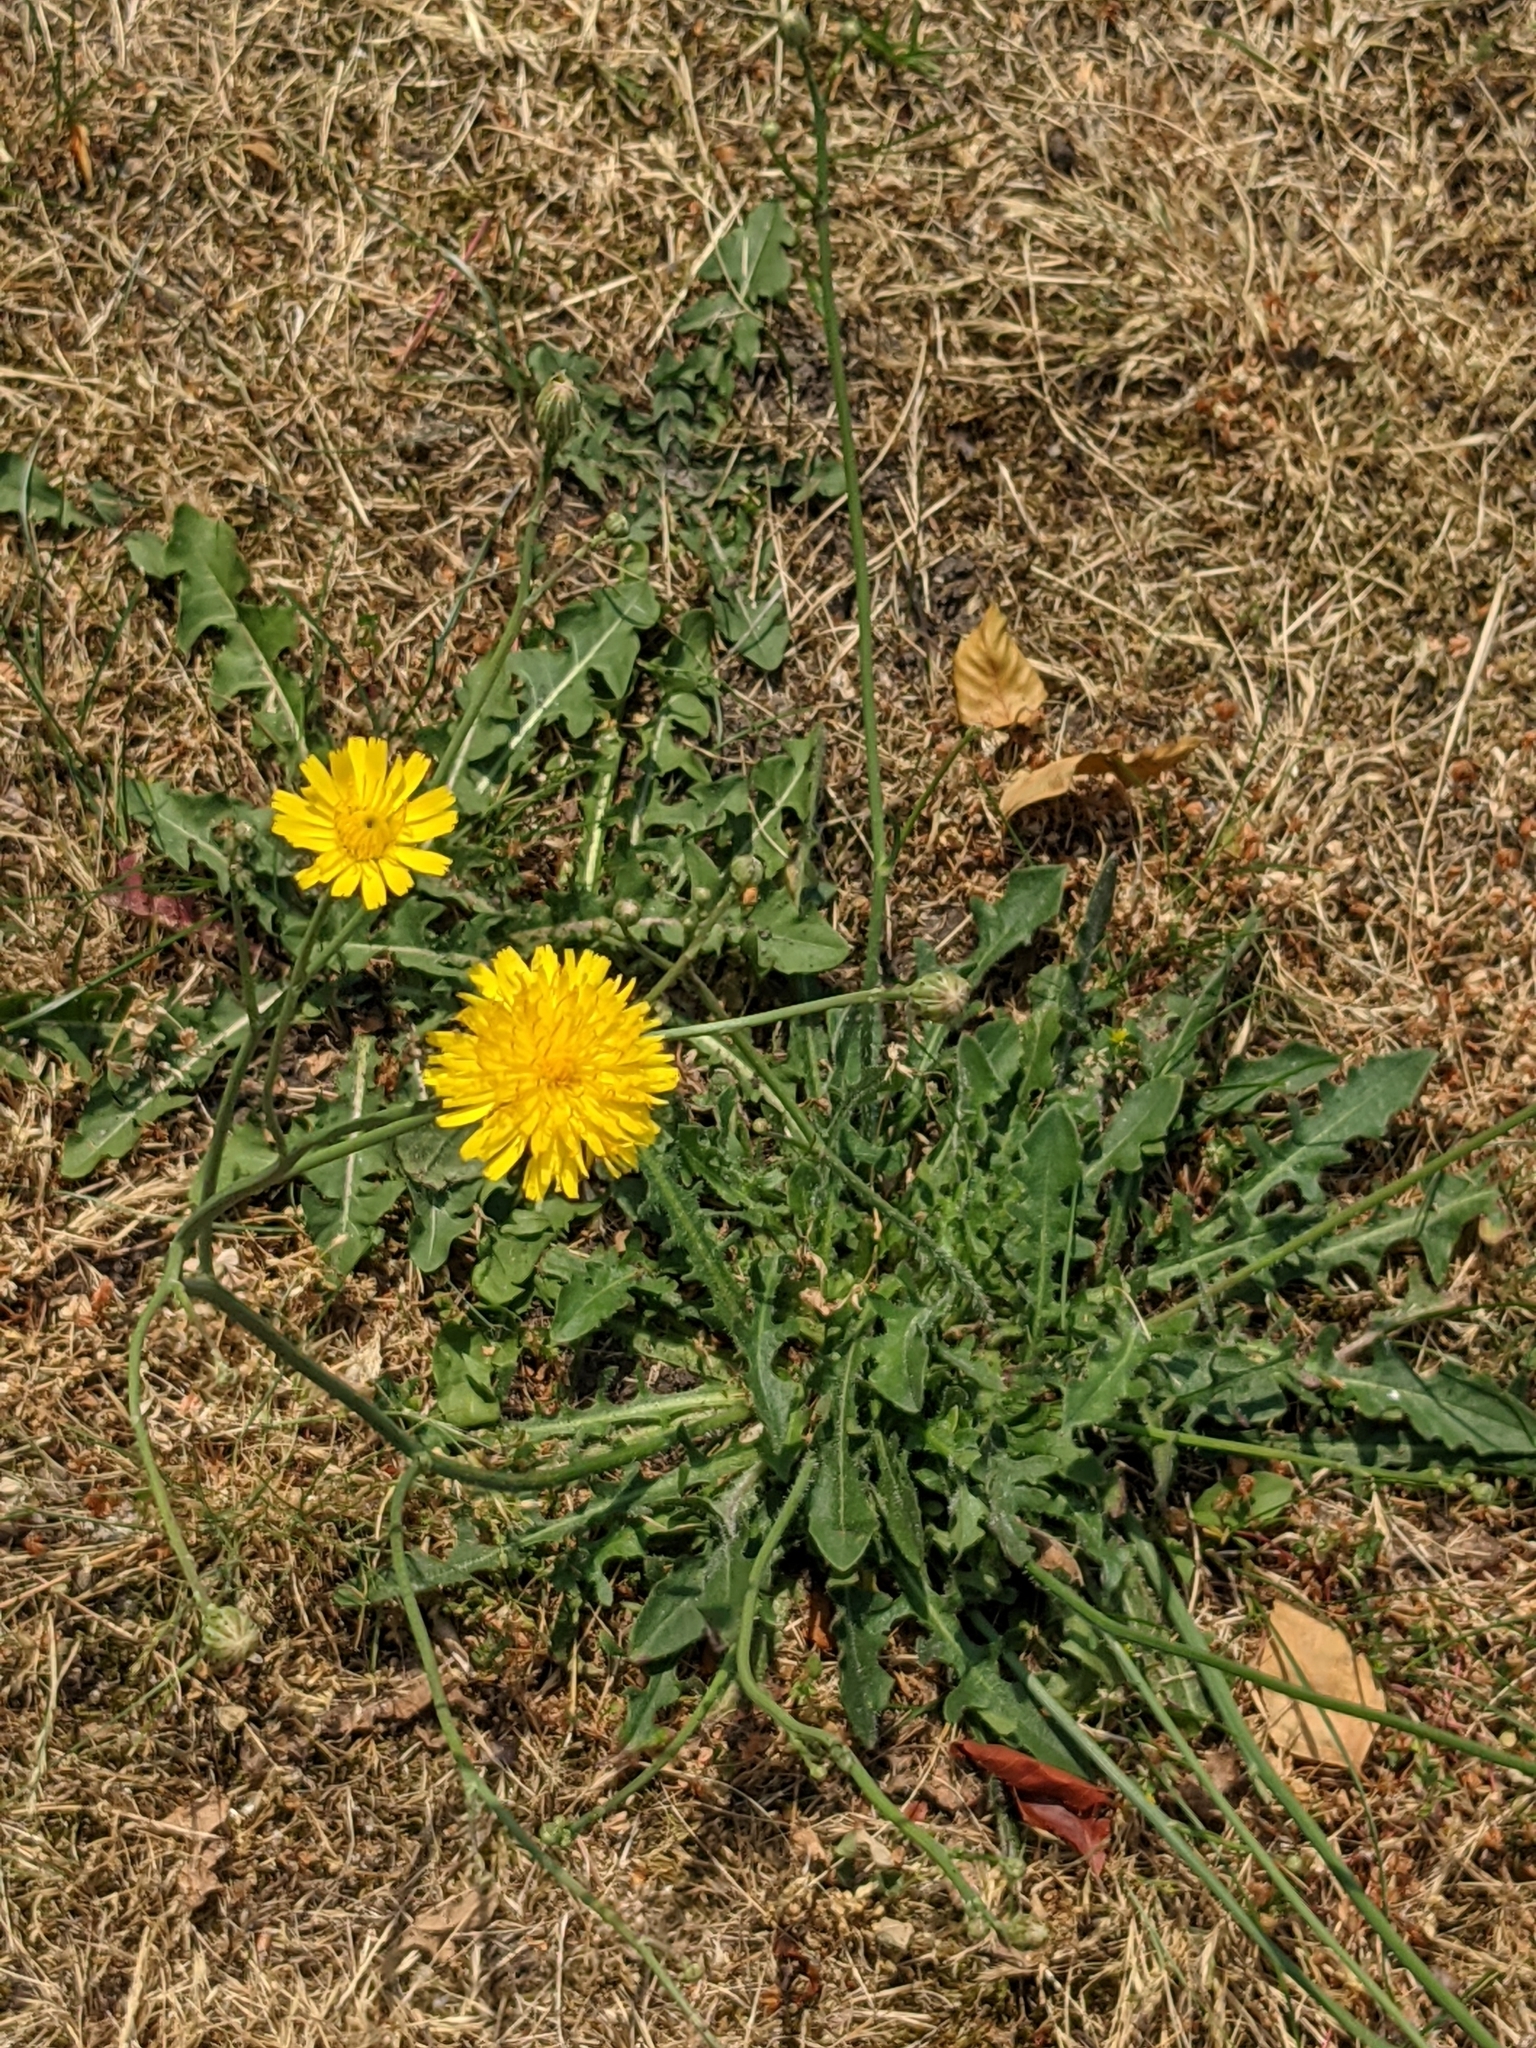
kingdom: Plantae
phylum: Tracheophyta
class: Magnoliopsida
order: Asterales
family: Asteraceae
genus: Taraxacum
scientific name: Taraxacum officinale
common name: Common dandelion
